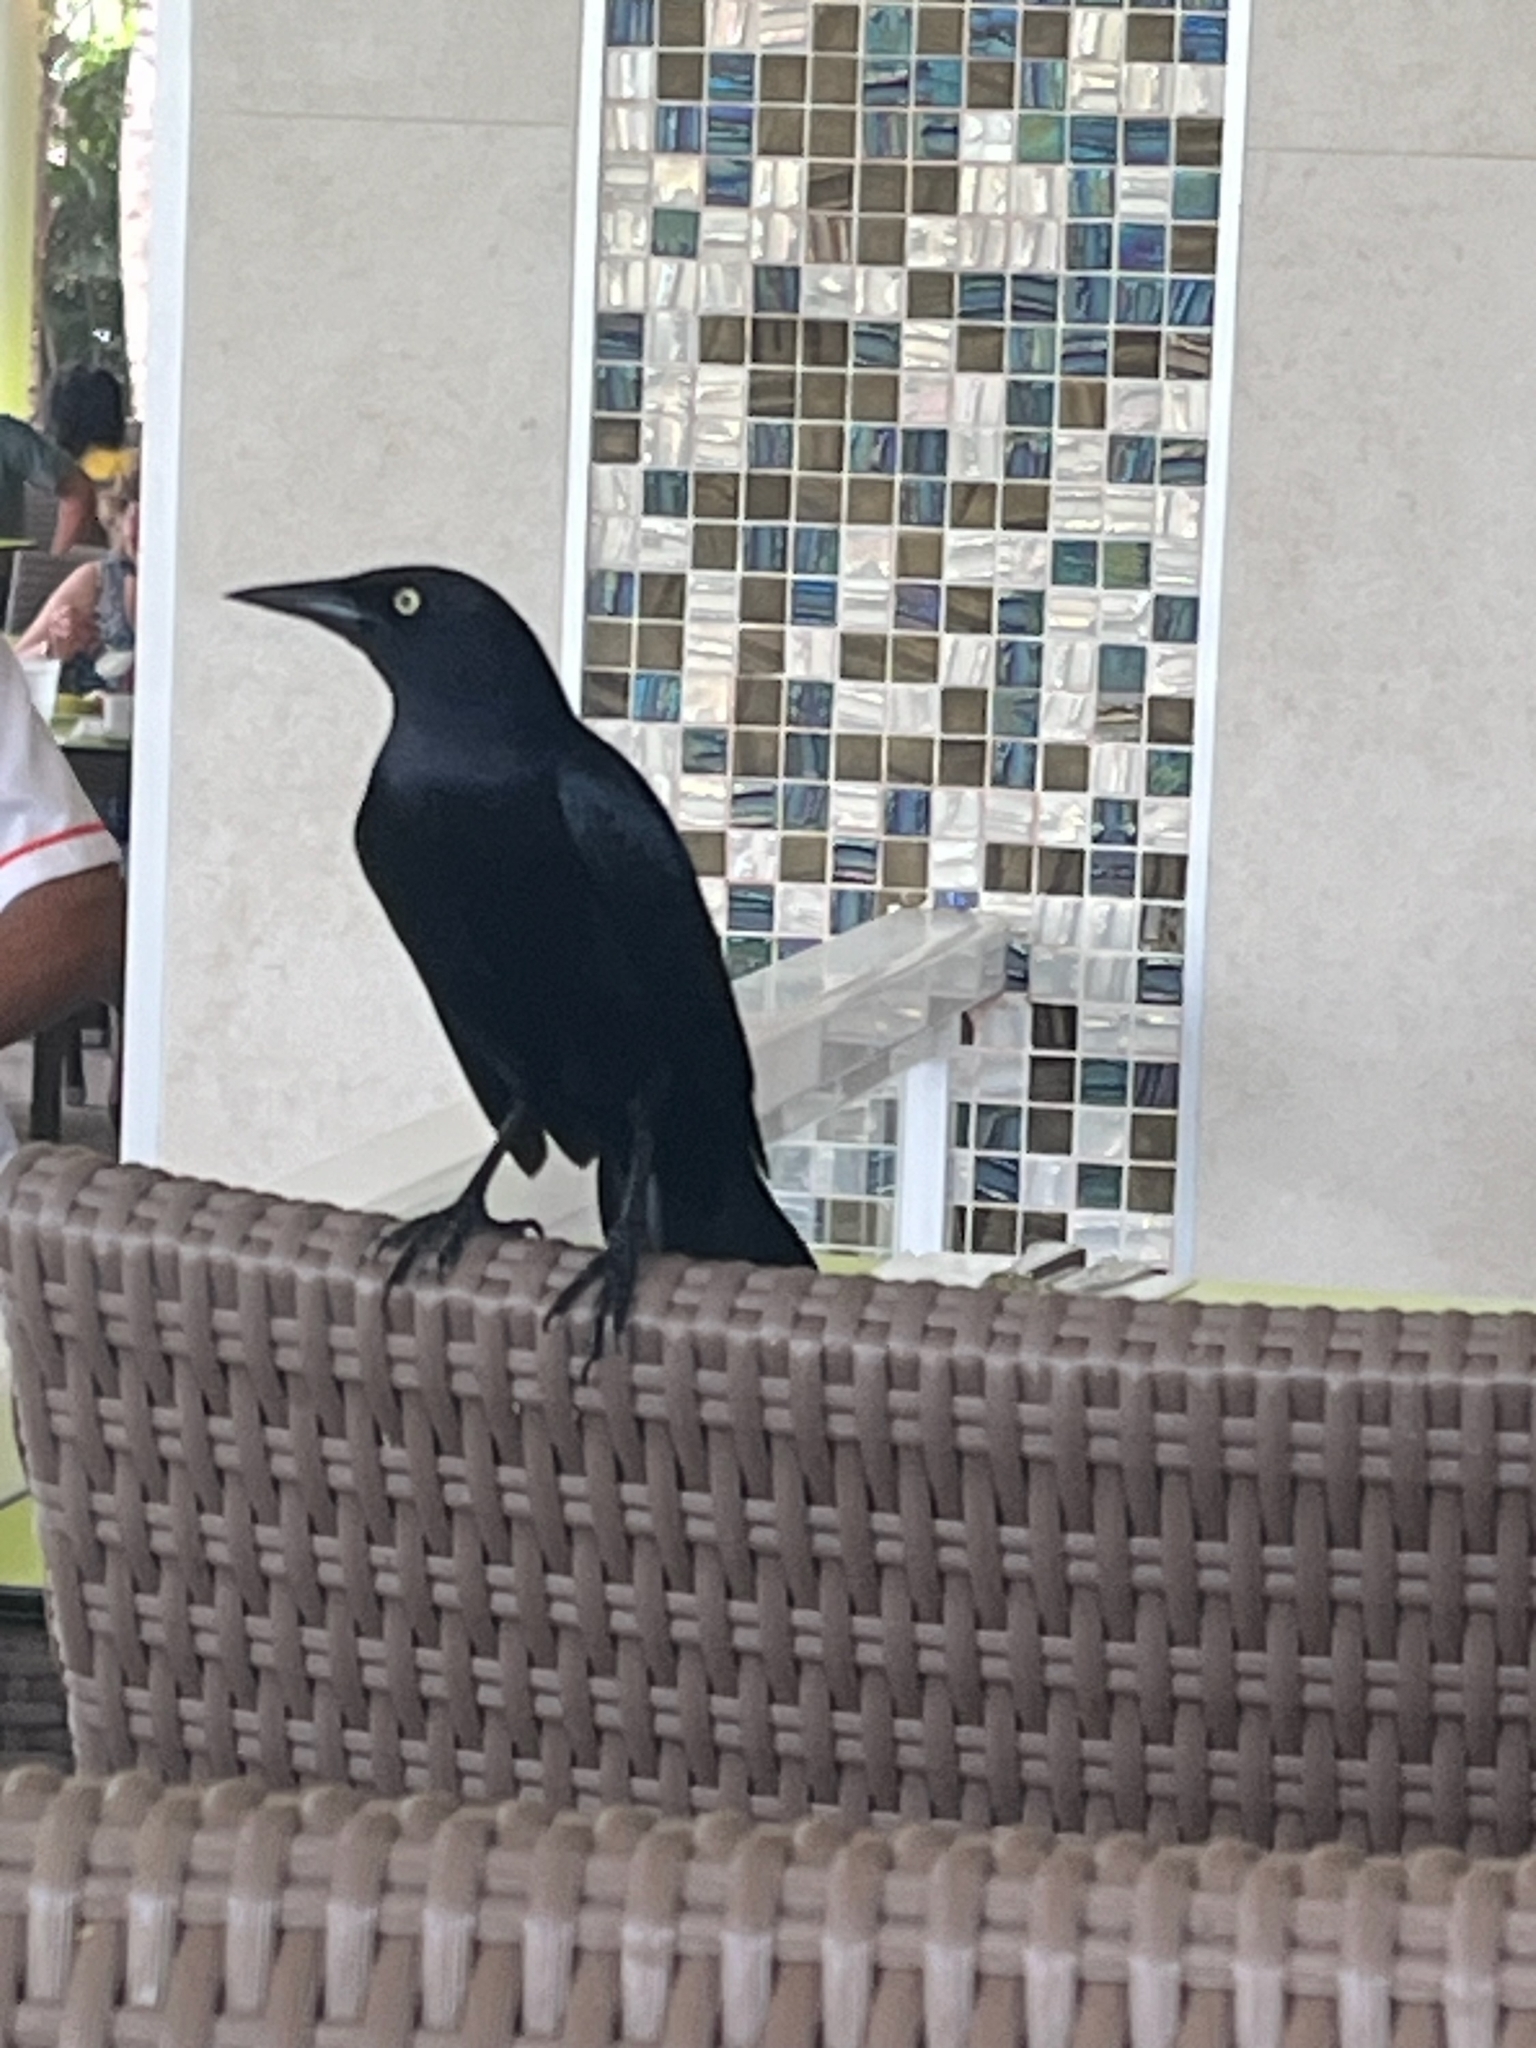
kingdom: Animalia
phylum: Chordata
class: Aves
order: Passeriformes
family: Icteridae
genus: Quiscalus
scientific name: Quiscalus niger
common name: Greater antillean grackle
